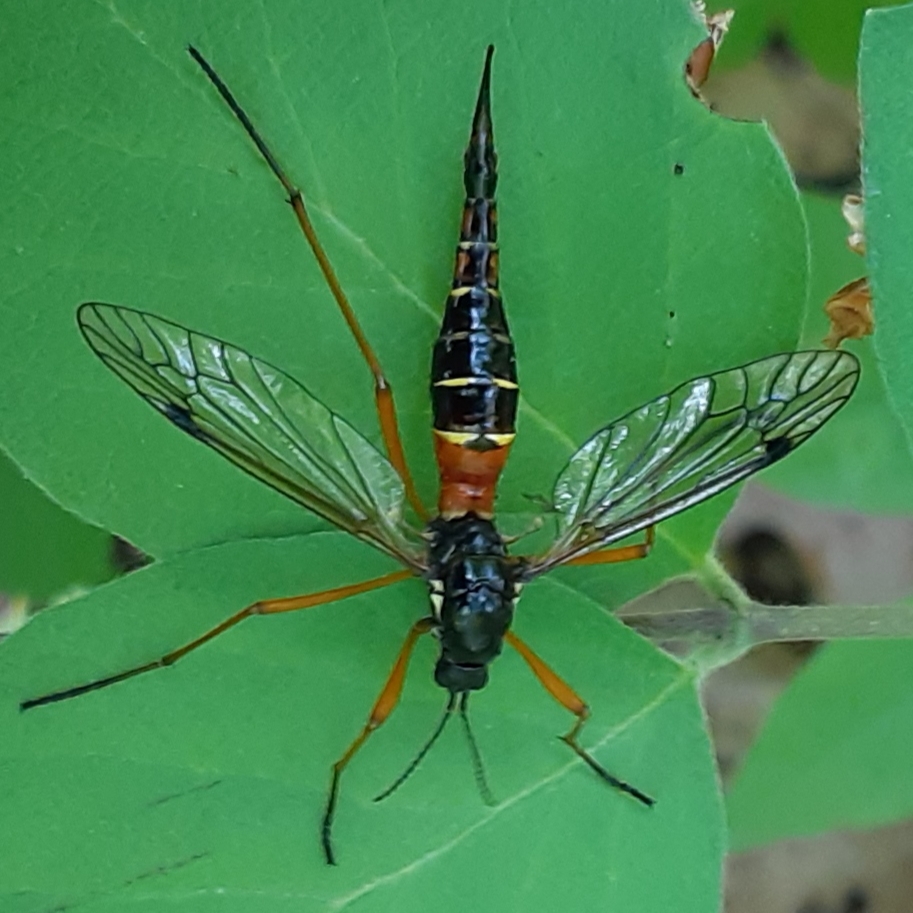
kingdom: Animalia
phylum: Arthropoda
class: Insecta
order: Diptera
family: Tipulidae
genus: Tanyptera
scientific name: Tanyptera dorsalis
